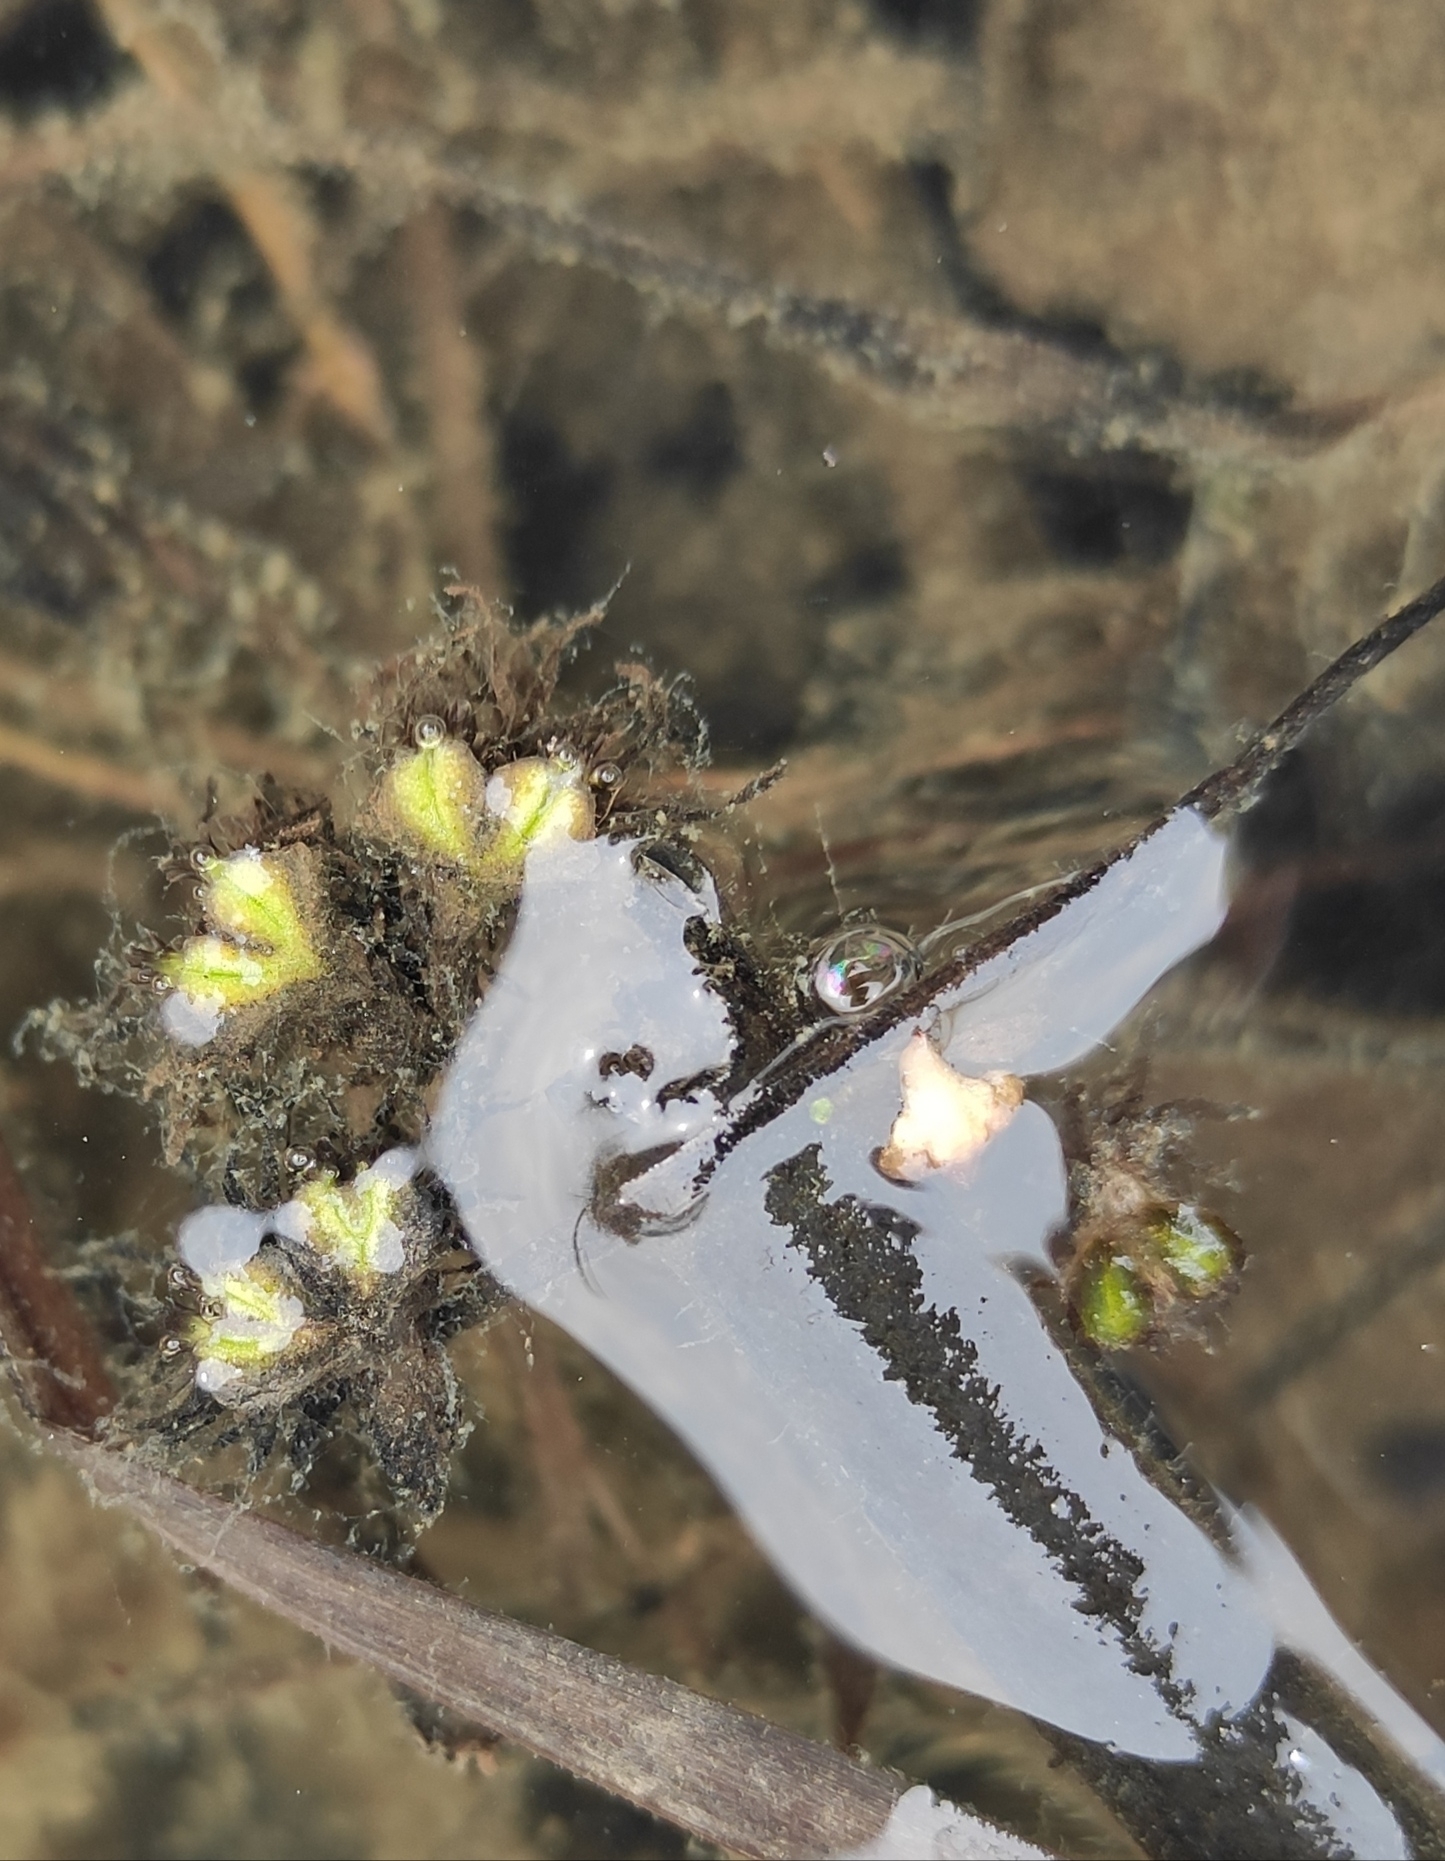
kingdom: Plantae
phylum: Marchantiophyta
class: Marchantiopsida
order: Marchantiales
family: Ricciaceae
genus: Ricciocarpos
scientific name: Ricciocarpos natans
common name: Purple-fringed liverwort
